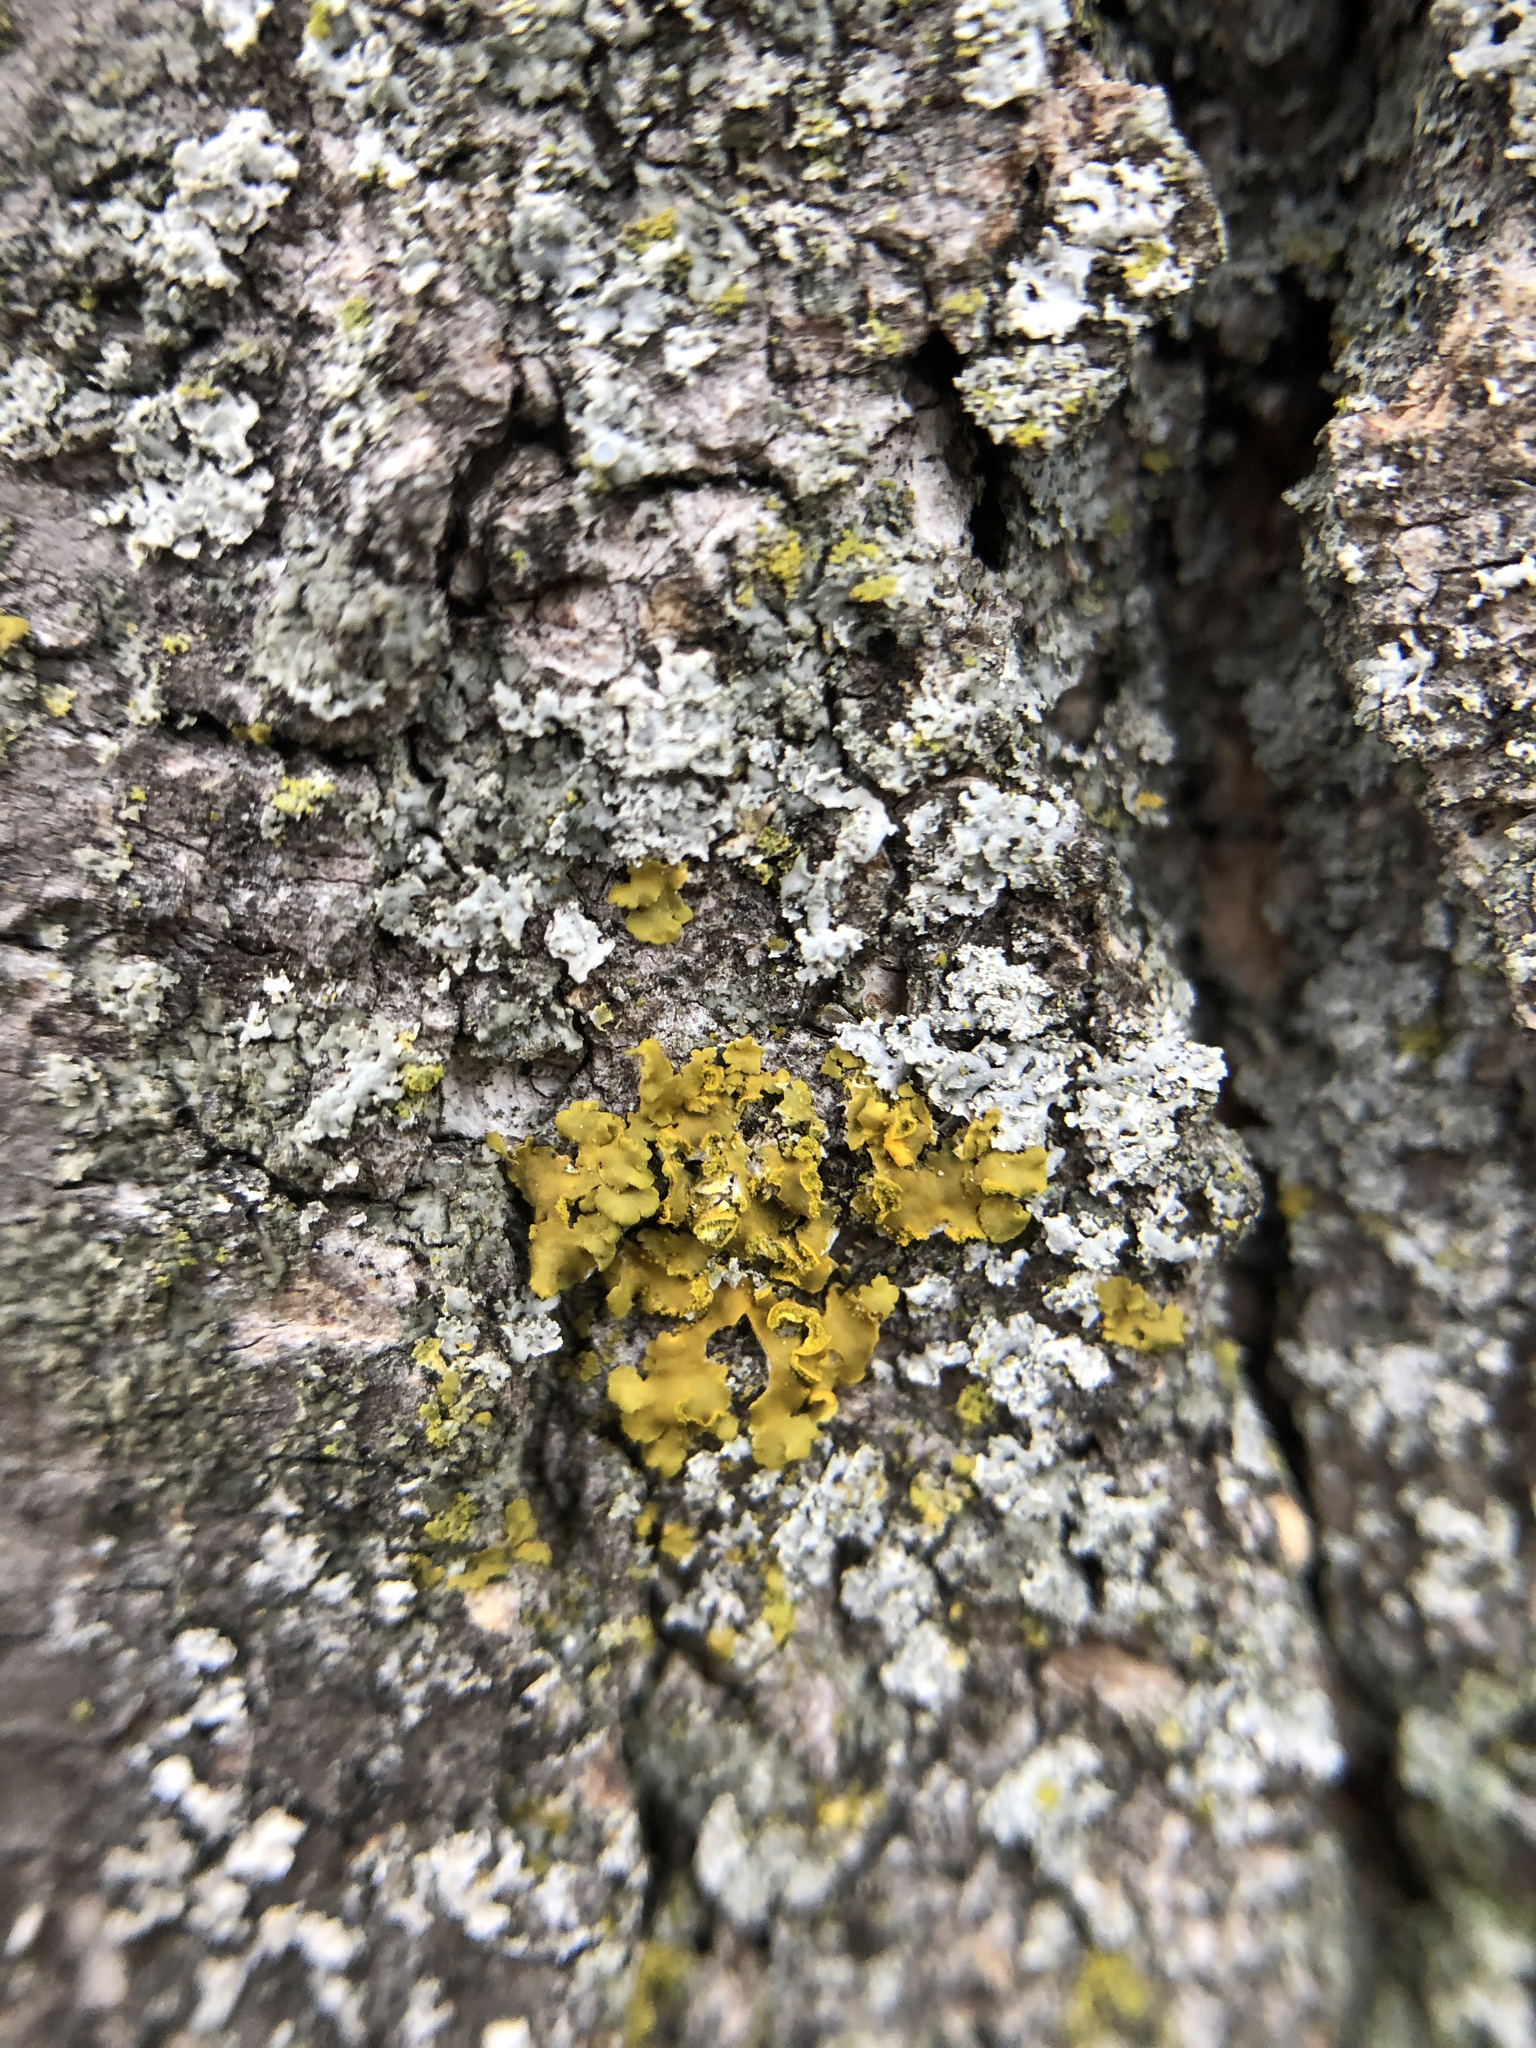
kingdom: Fungi
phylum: Ascomycota
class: Lecanoromycetes
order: Teloschistales
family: Teloschistaceae
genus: Oxneria
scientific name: Oxneria fallax
